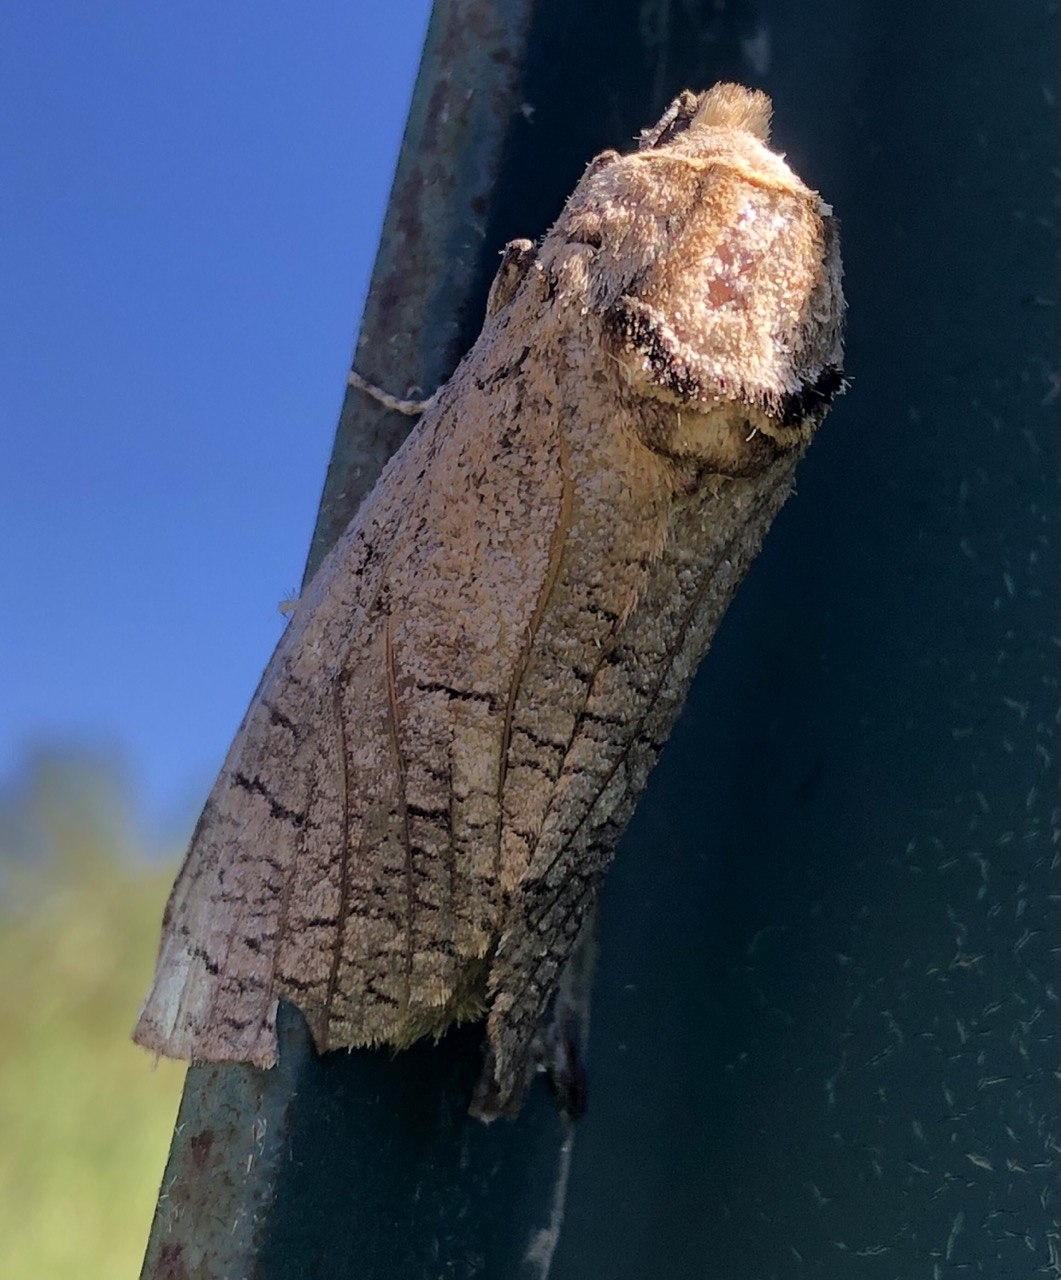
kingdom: Animalia
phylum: Arthropoda
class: Insecta
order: Lepidoptera
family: Cossidae
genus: Cossus
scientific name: Cossus cossus
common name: Goat moth
